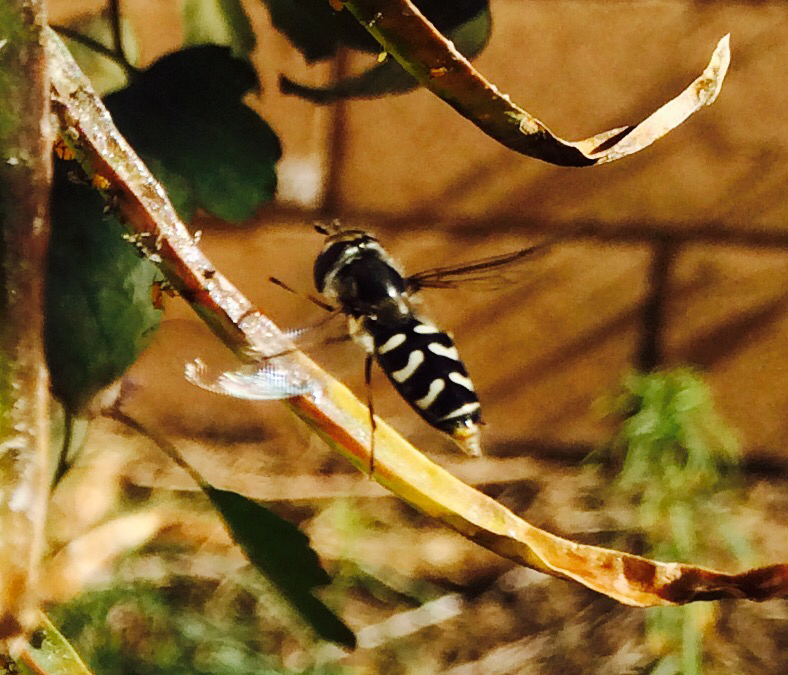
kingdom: Animalia
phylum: Arthropoda
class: Insecta
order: Diptera
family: Syrphidae
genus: Scaeva
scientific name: Scaeva affinis
